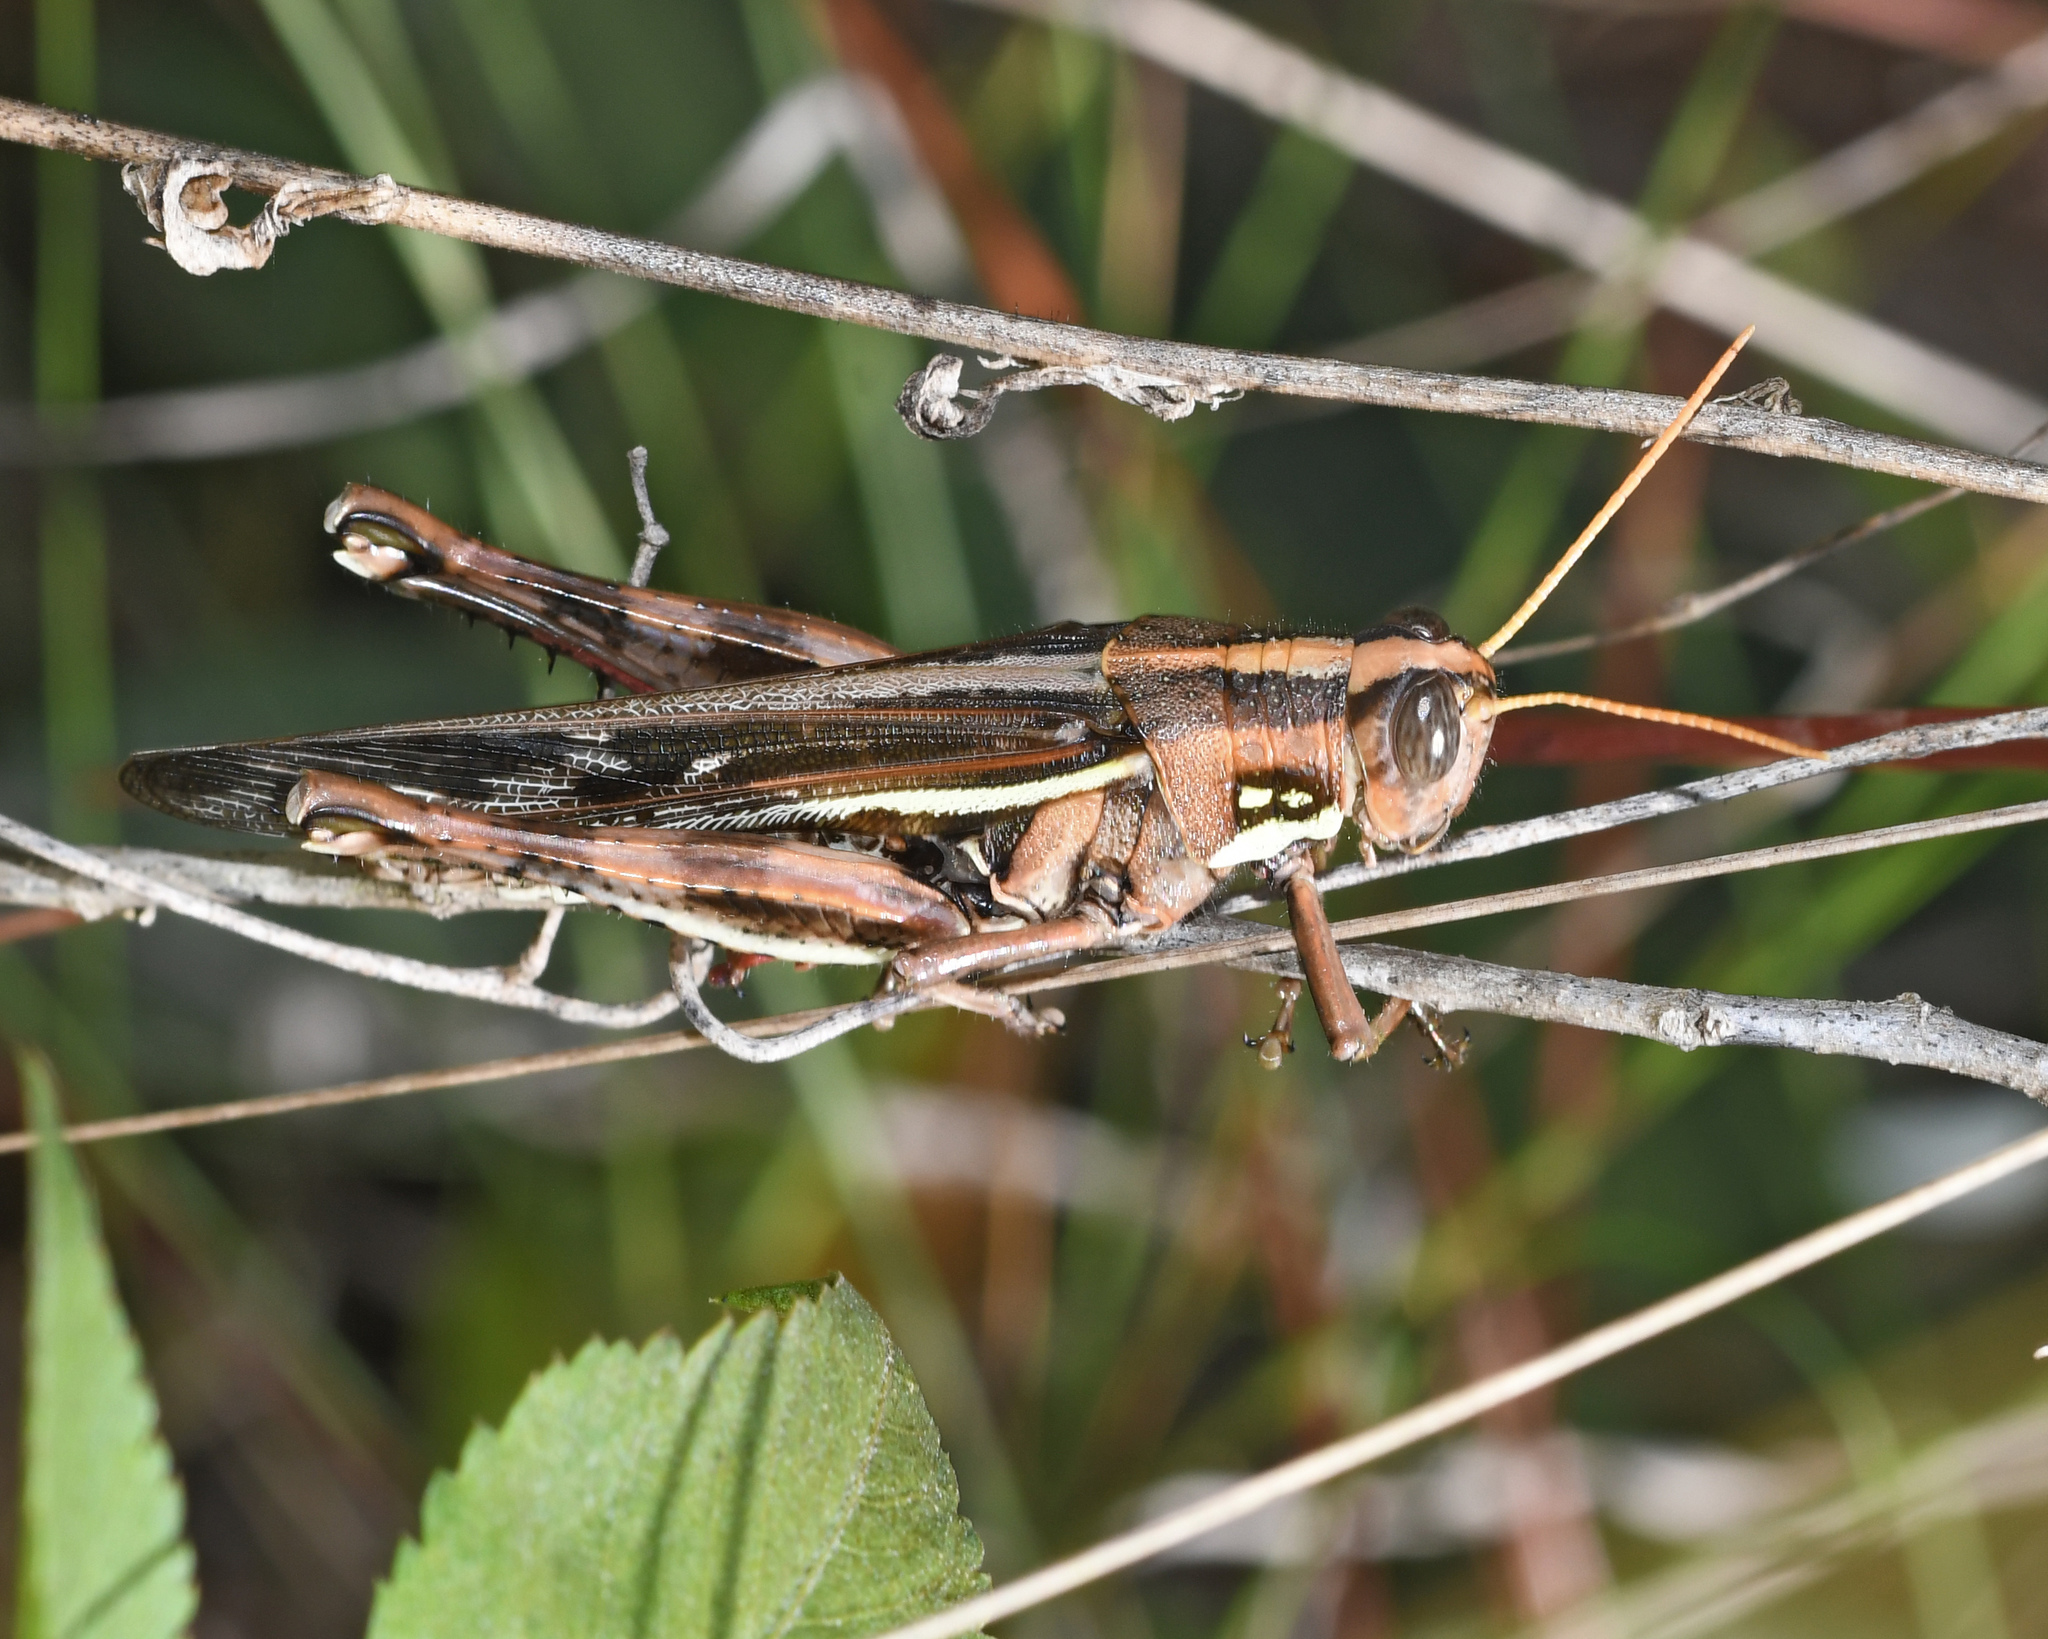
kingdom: Animalia
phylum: Arthropoda
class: Insecta
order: Orthoptera
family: Acrididae
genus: Schistocerca
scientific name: Schistocerca quisqueya
